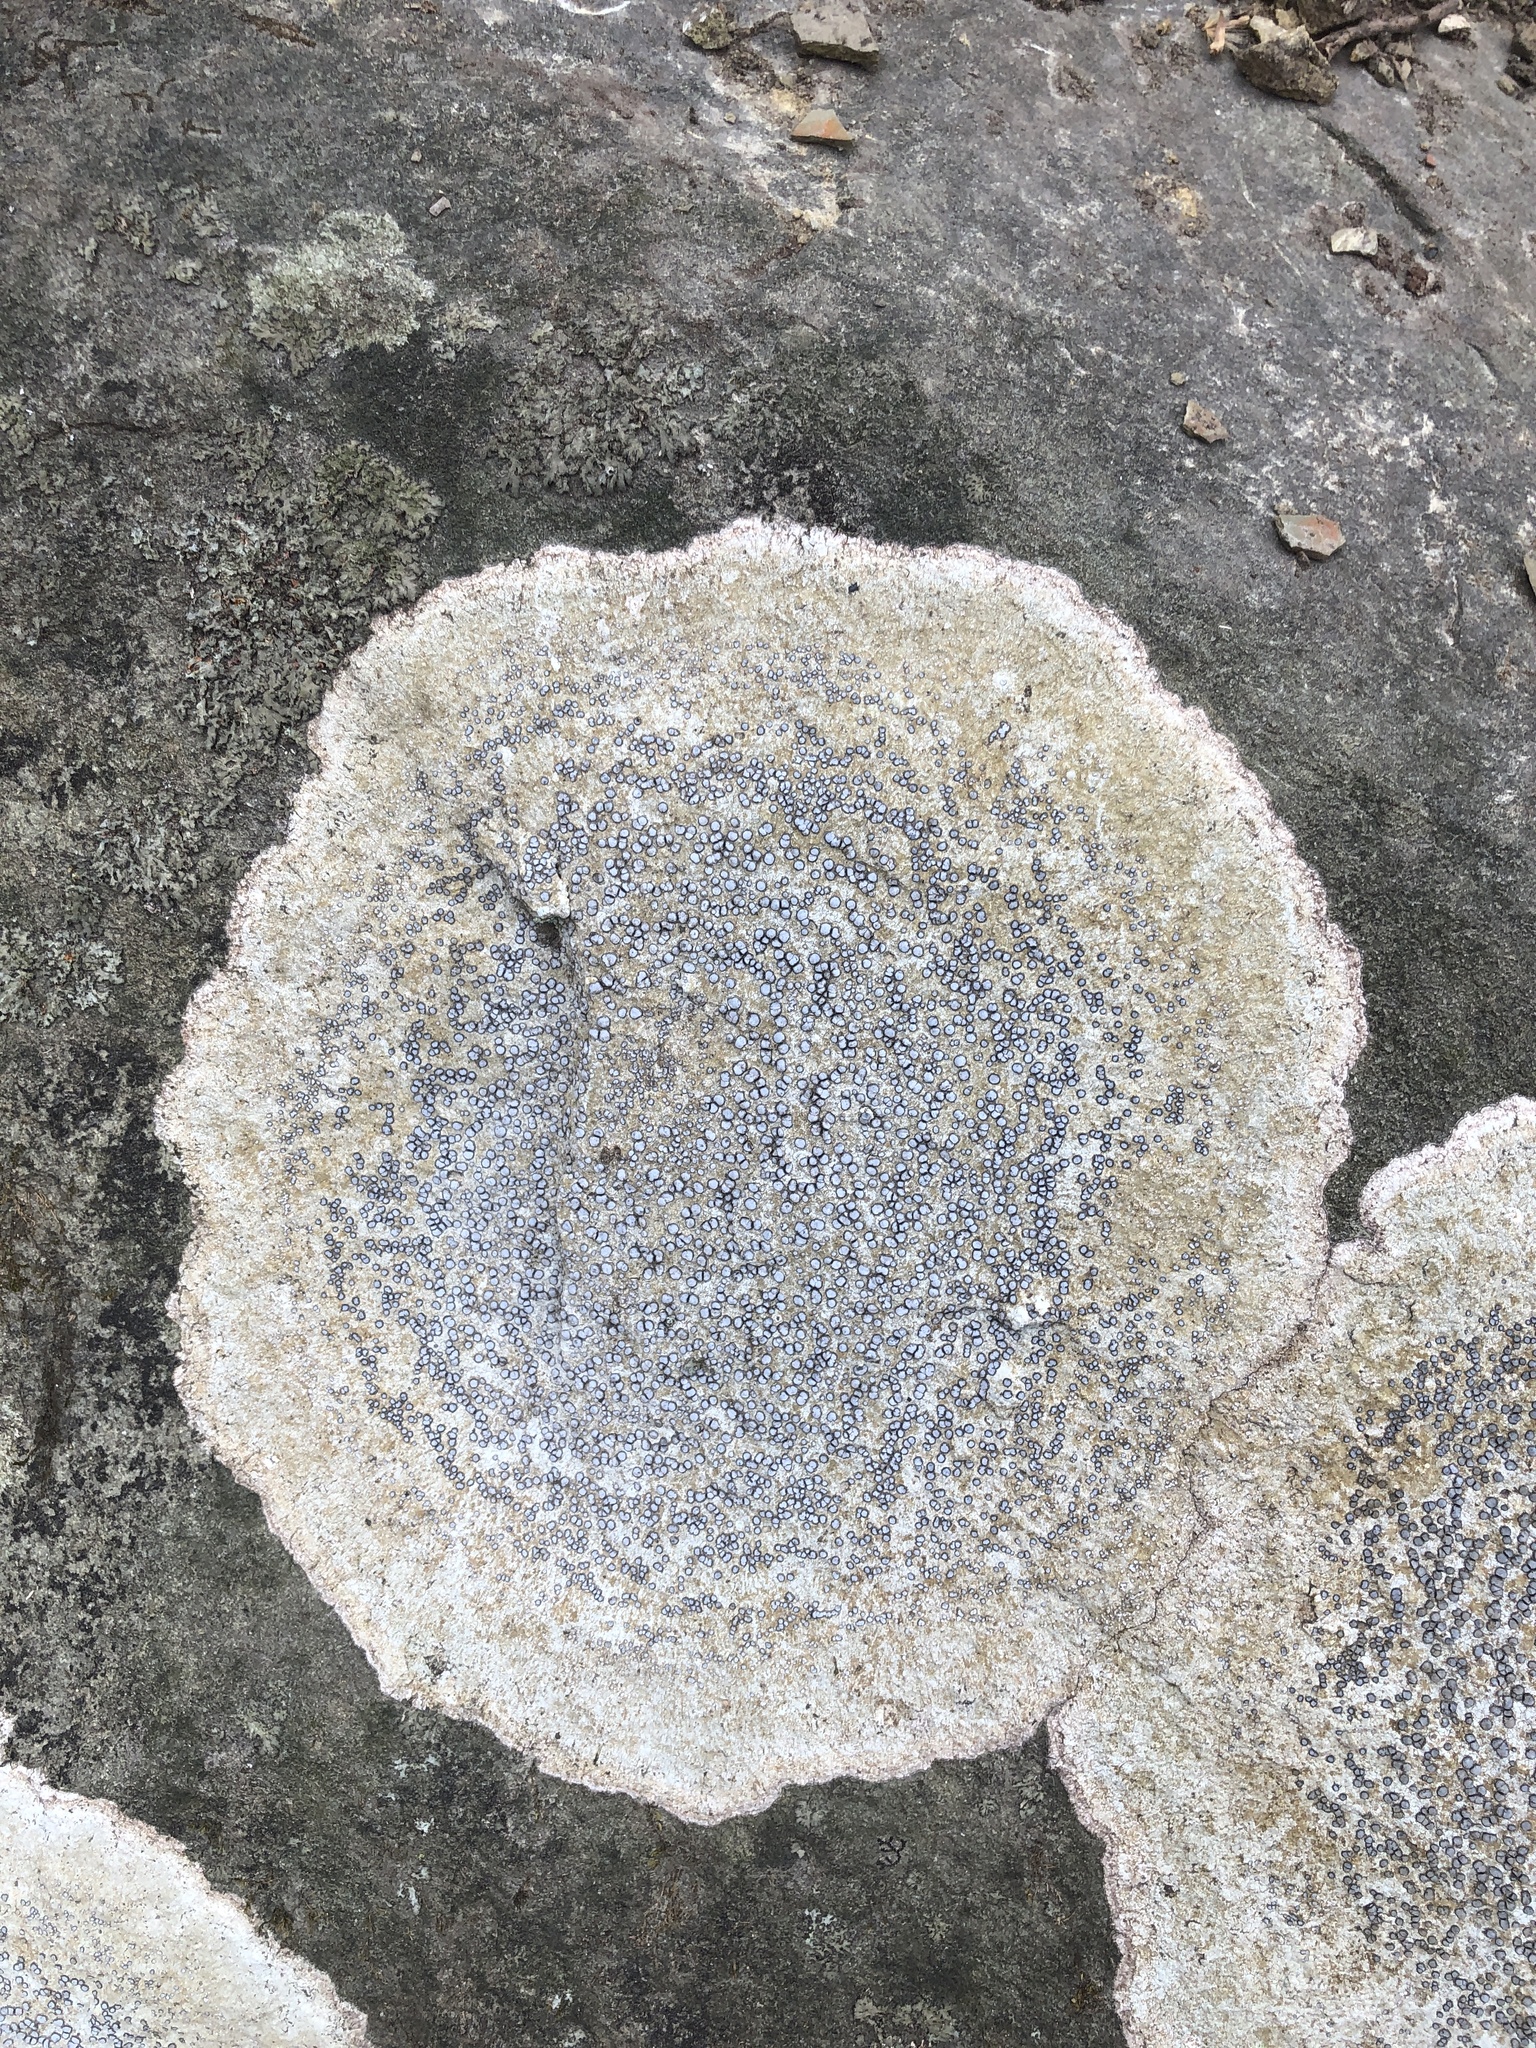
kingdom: Fungi
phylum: Ascomycota
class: Lecanoromycetes
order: Lecideales
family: Lecideaceae
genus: Porpidia
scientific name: Porpidia albocaerulescens
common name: Smokey-eyed boulder lichen
